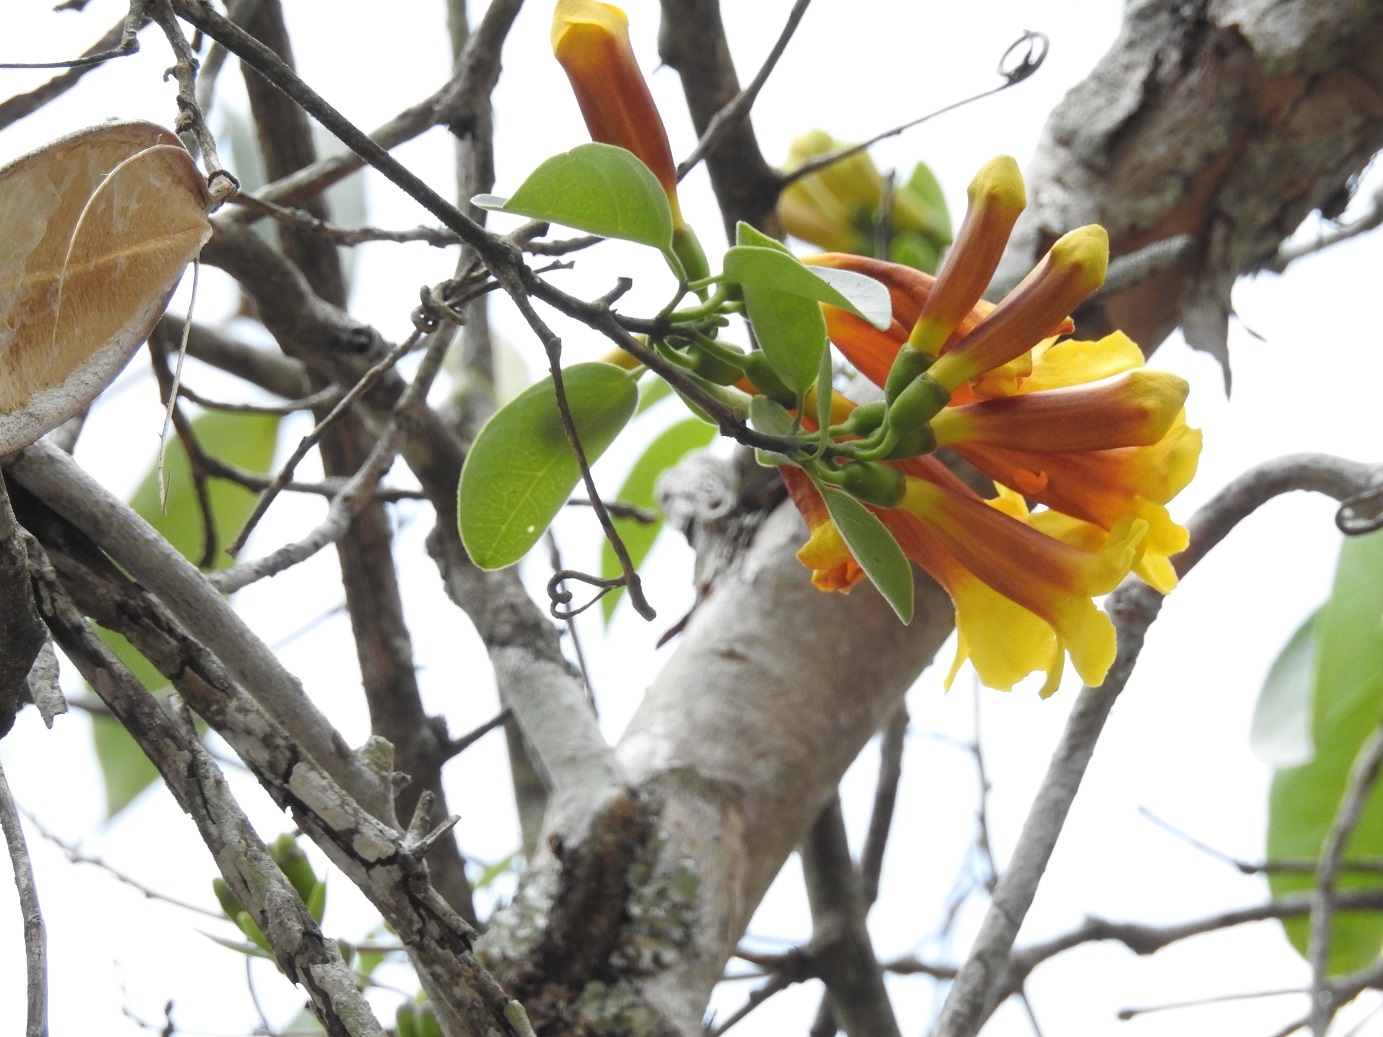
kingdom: Plantae
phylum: Tracheophyta
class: Magnoliopsida
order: Lamiales
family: Bignoniaceae
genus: Anemopaegma
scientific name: Anemopaegma chrysanthum
